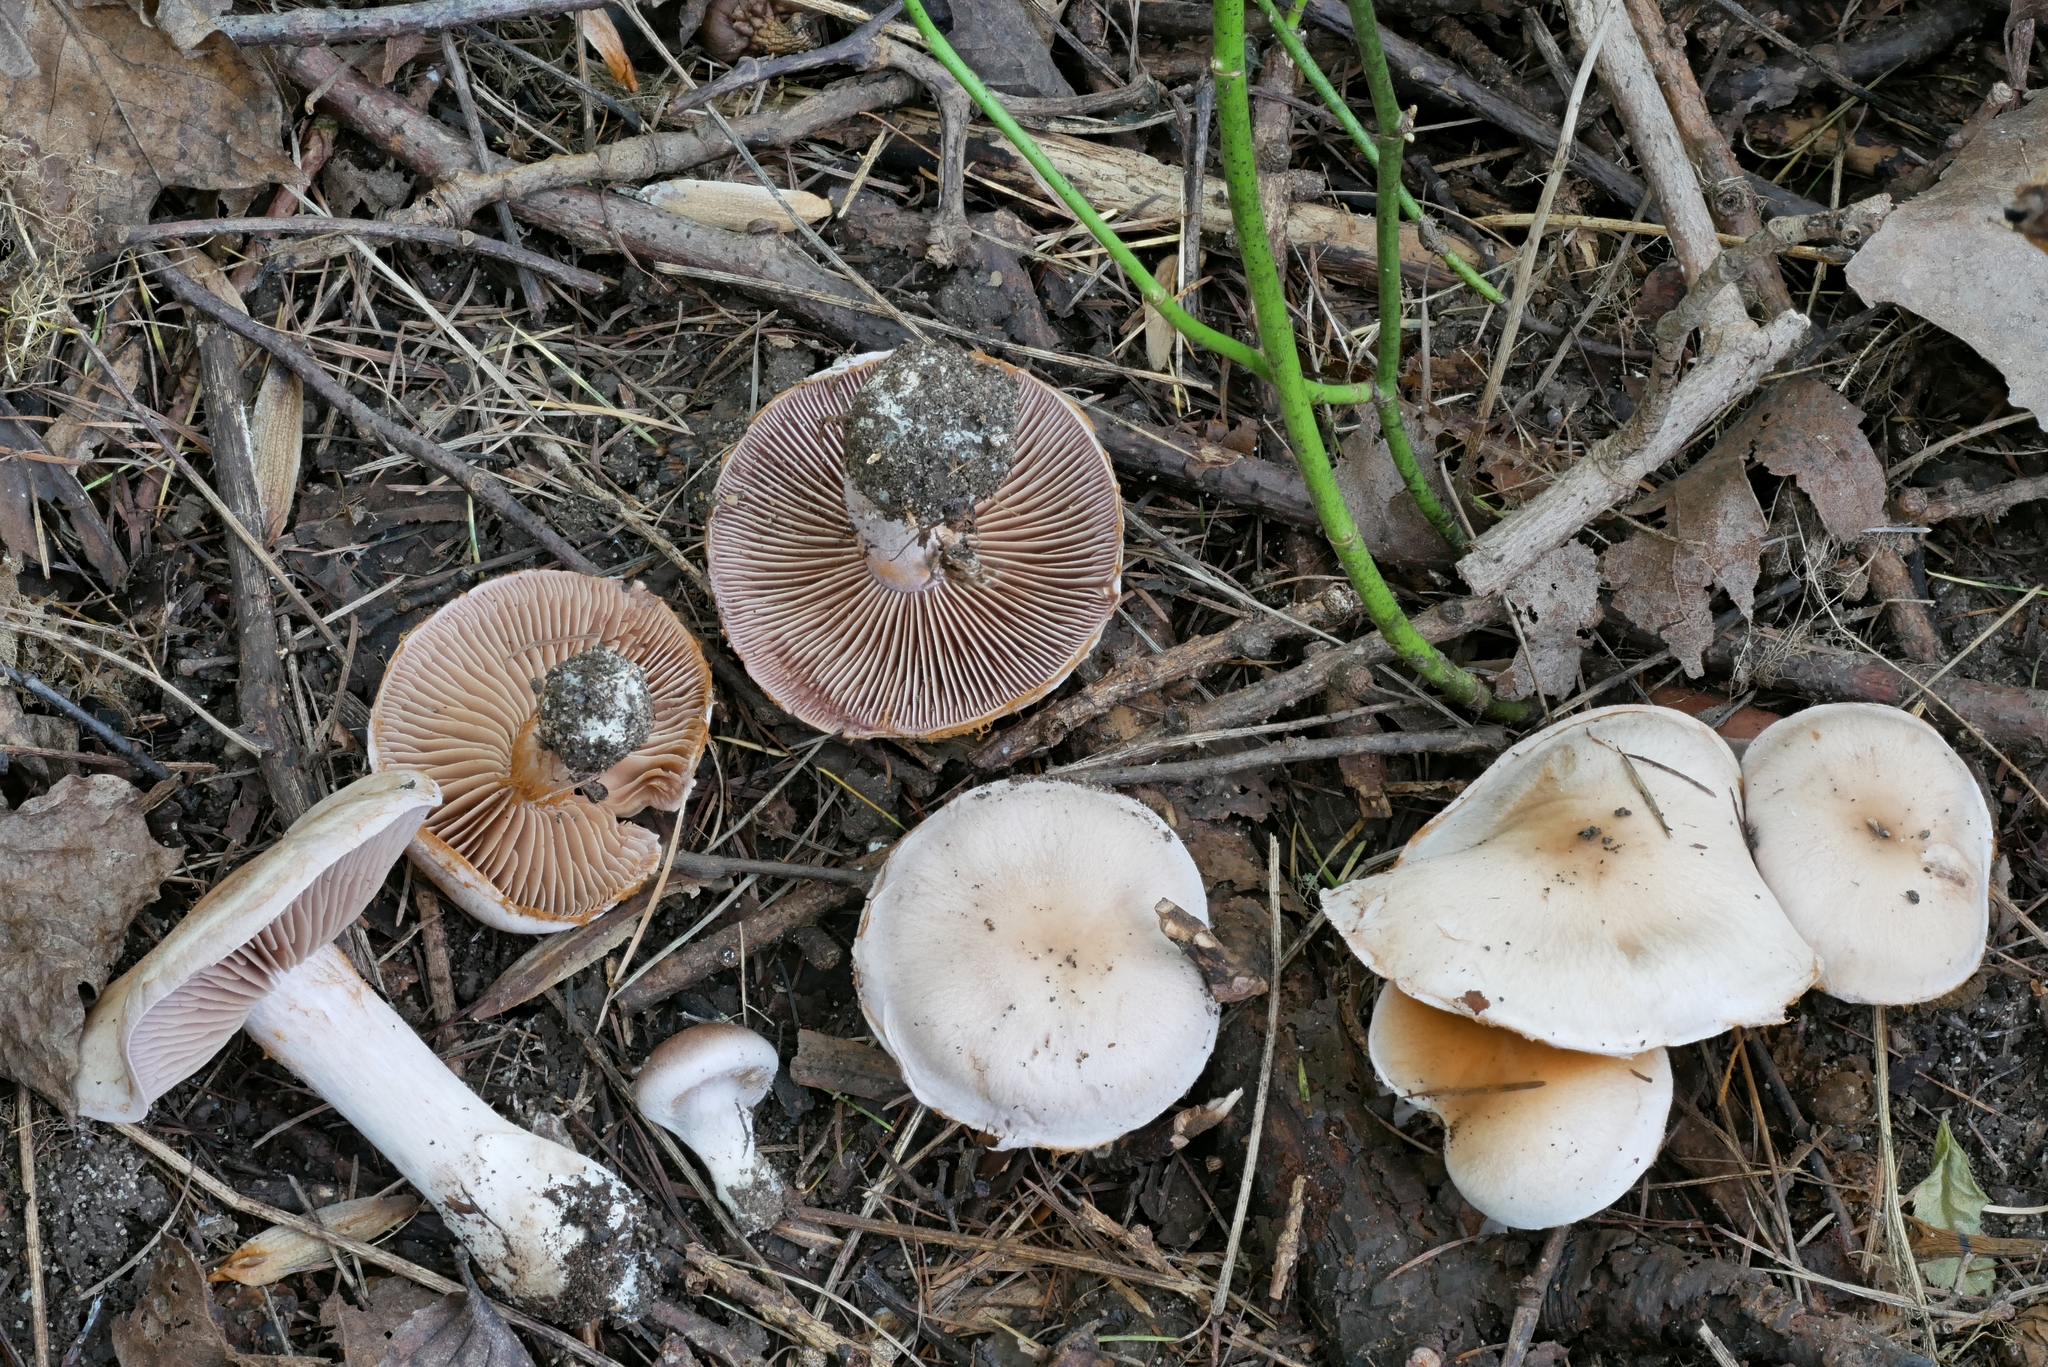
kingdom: Fungi
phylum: Basidiomycota
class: Agaricomycetes
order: Agaricales
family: Cortinariaceae
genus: Cortinarius
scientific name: Cortinarius lucorum
